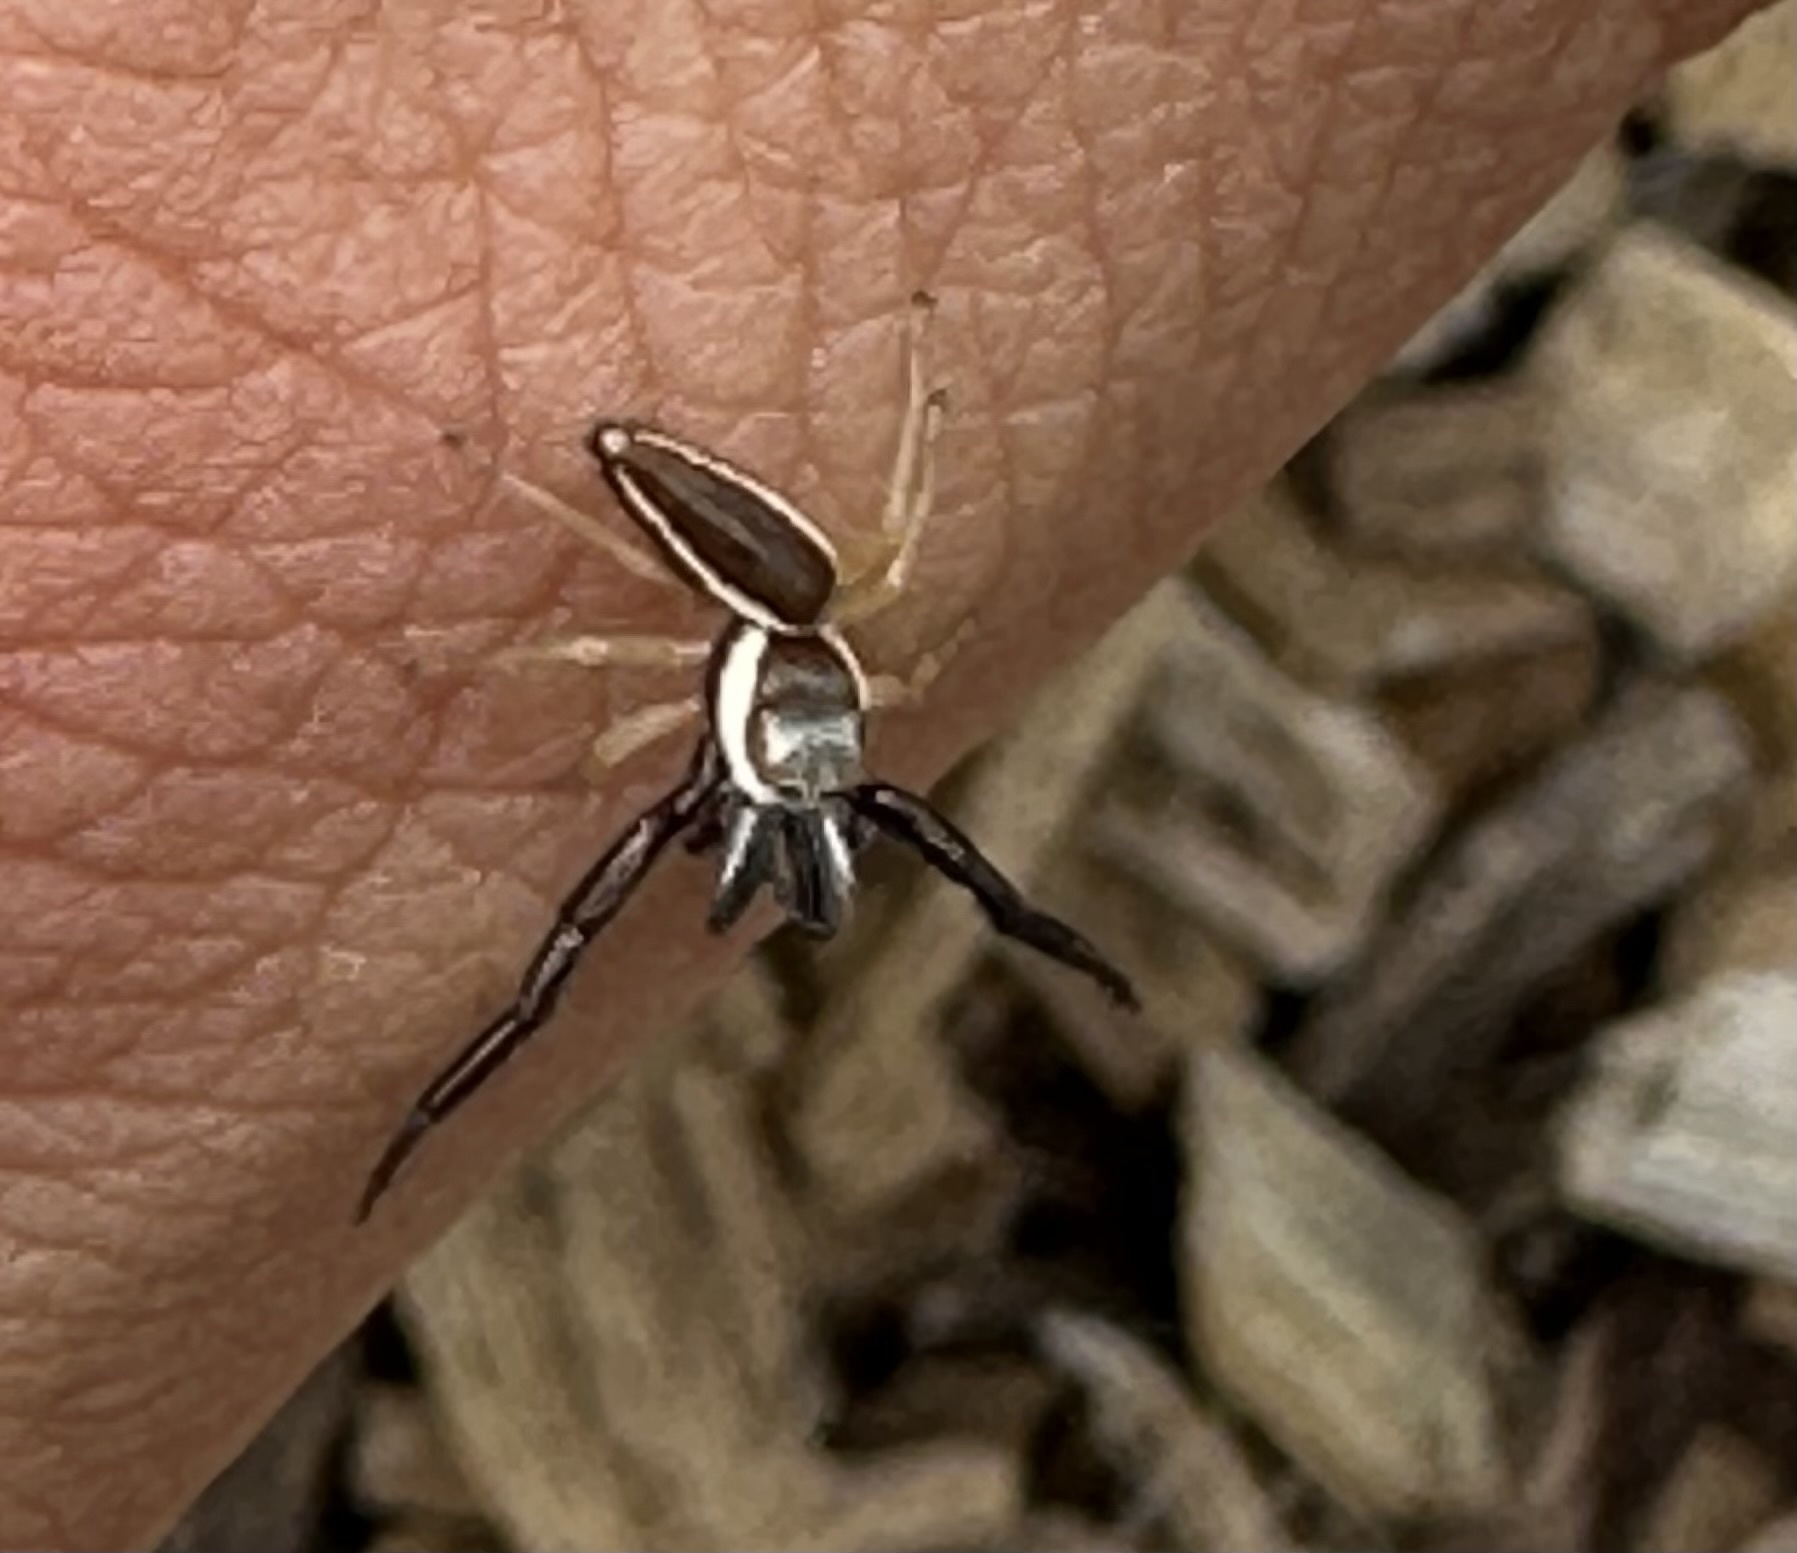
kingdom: Animalia
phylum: Arthropoda
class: Arachnida
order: Araneae
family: Salticidae
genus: Hentzia
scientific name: Hentzia palmarum
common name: Common hentz jumping spider
